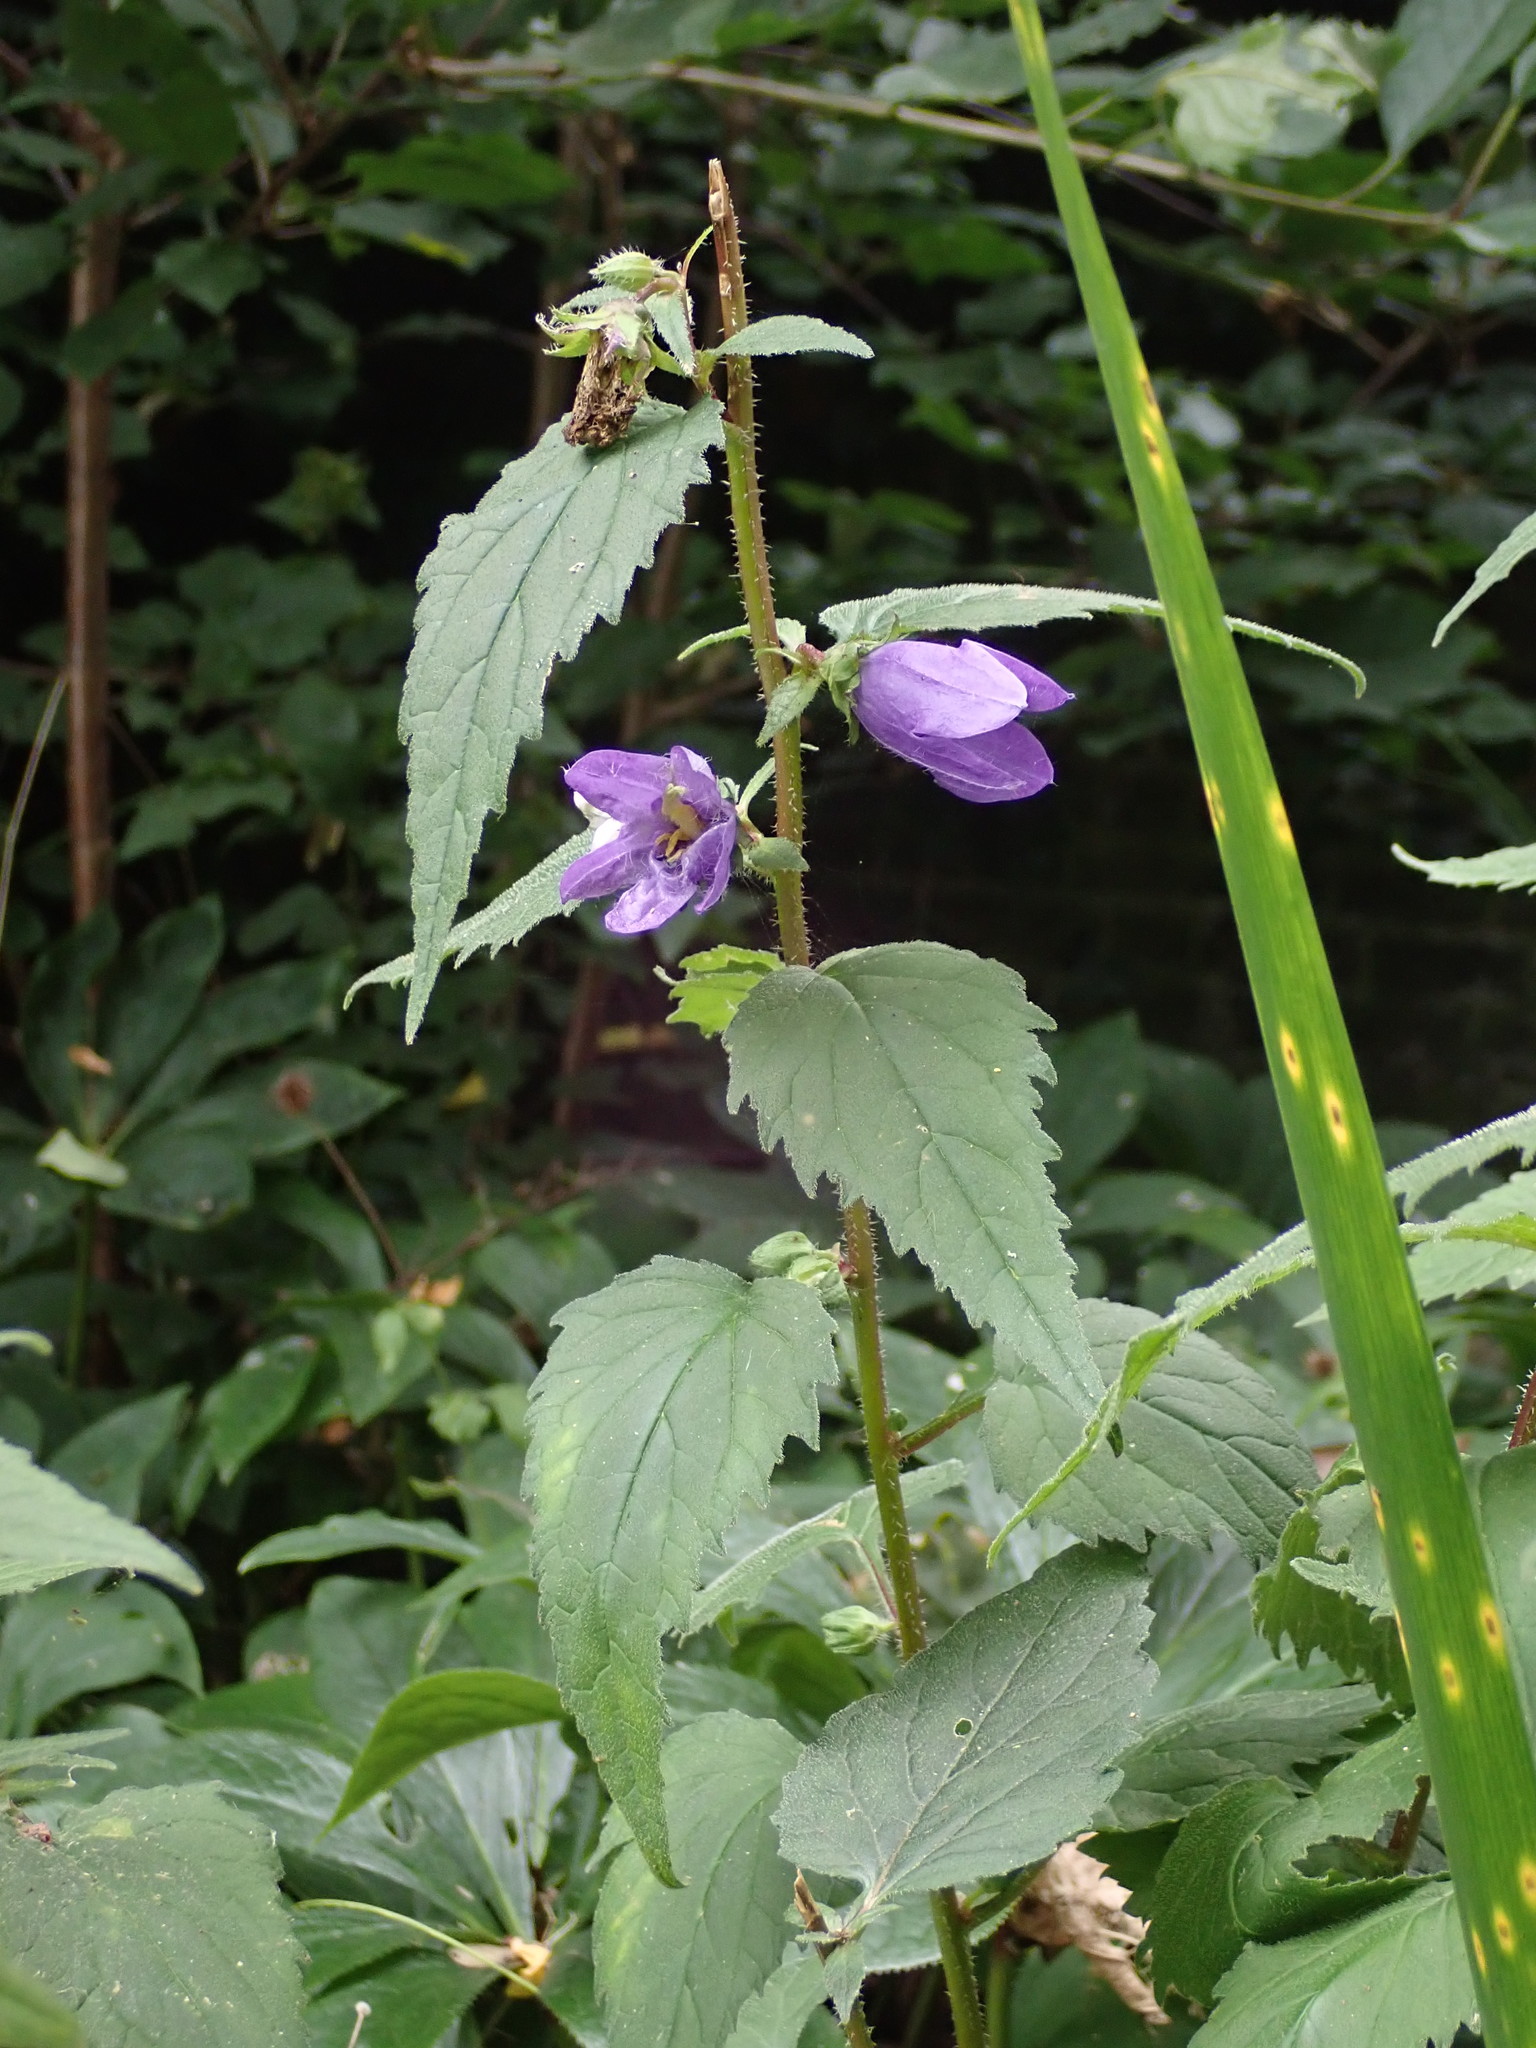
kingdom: Plantae
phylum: Tracheophyta
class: Magnoliopsida
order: Asterales
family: Campanulaceae
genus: Campanula
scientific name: Campanula trachelium
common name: Nettle-leaved bellflower
